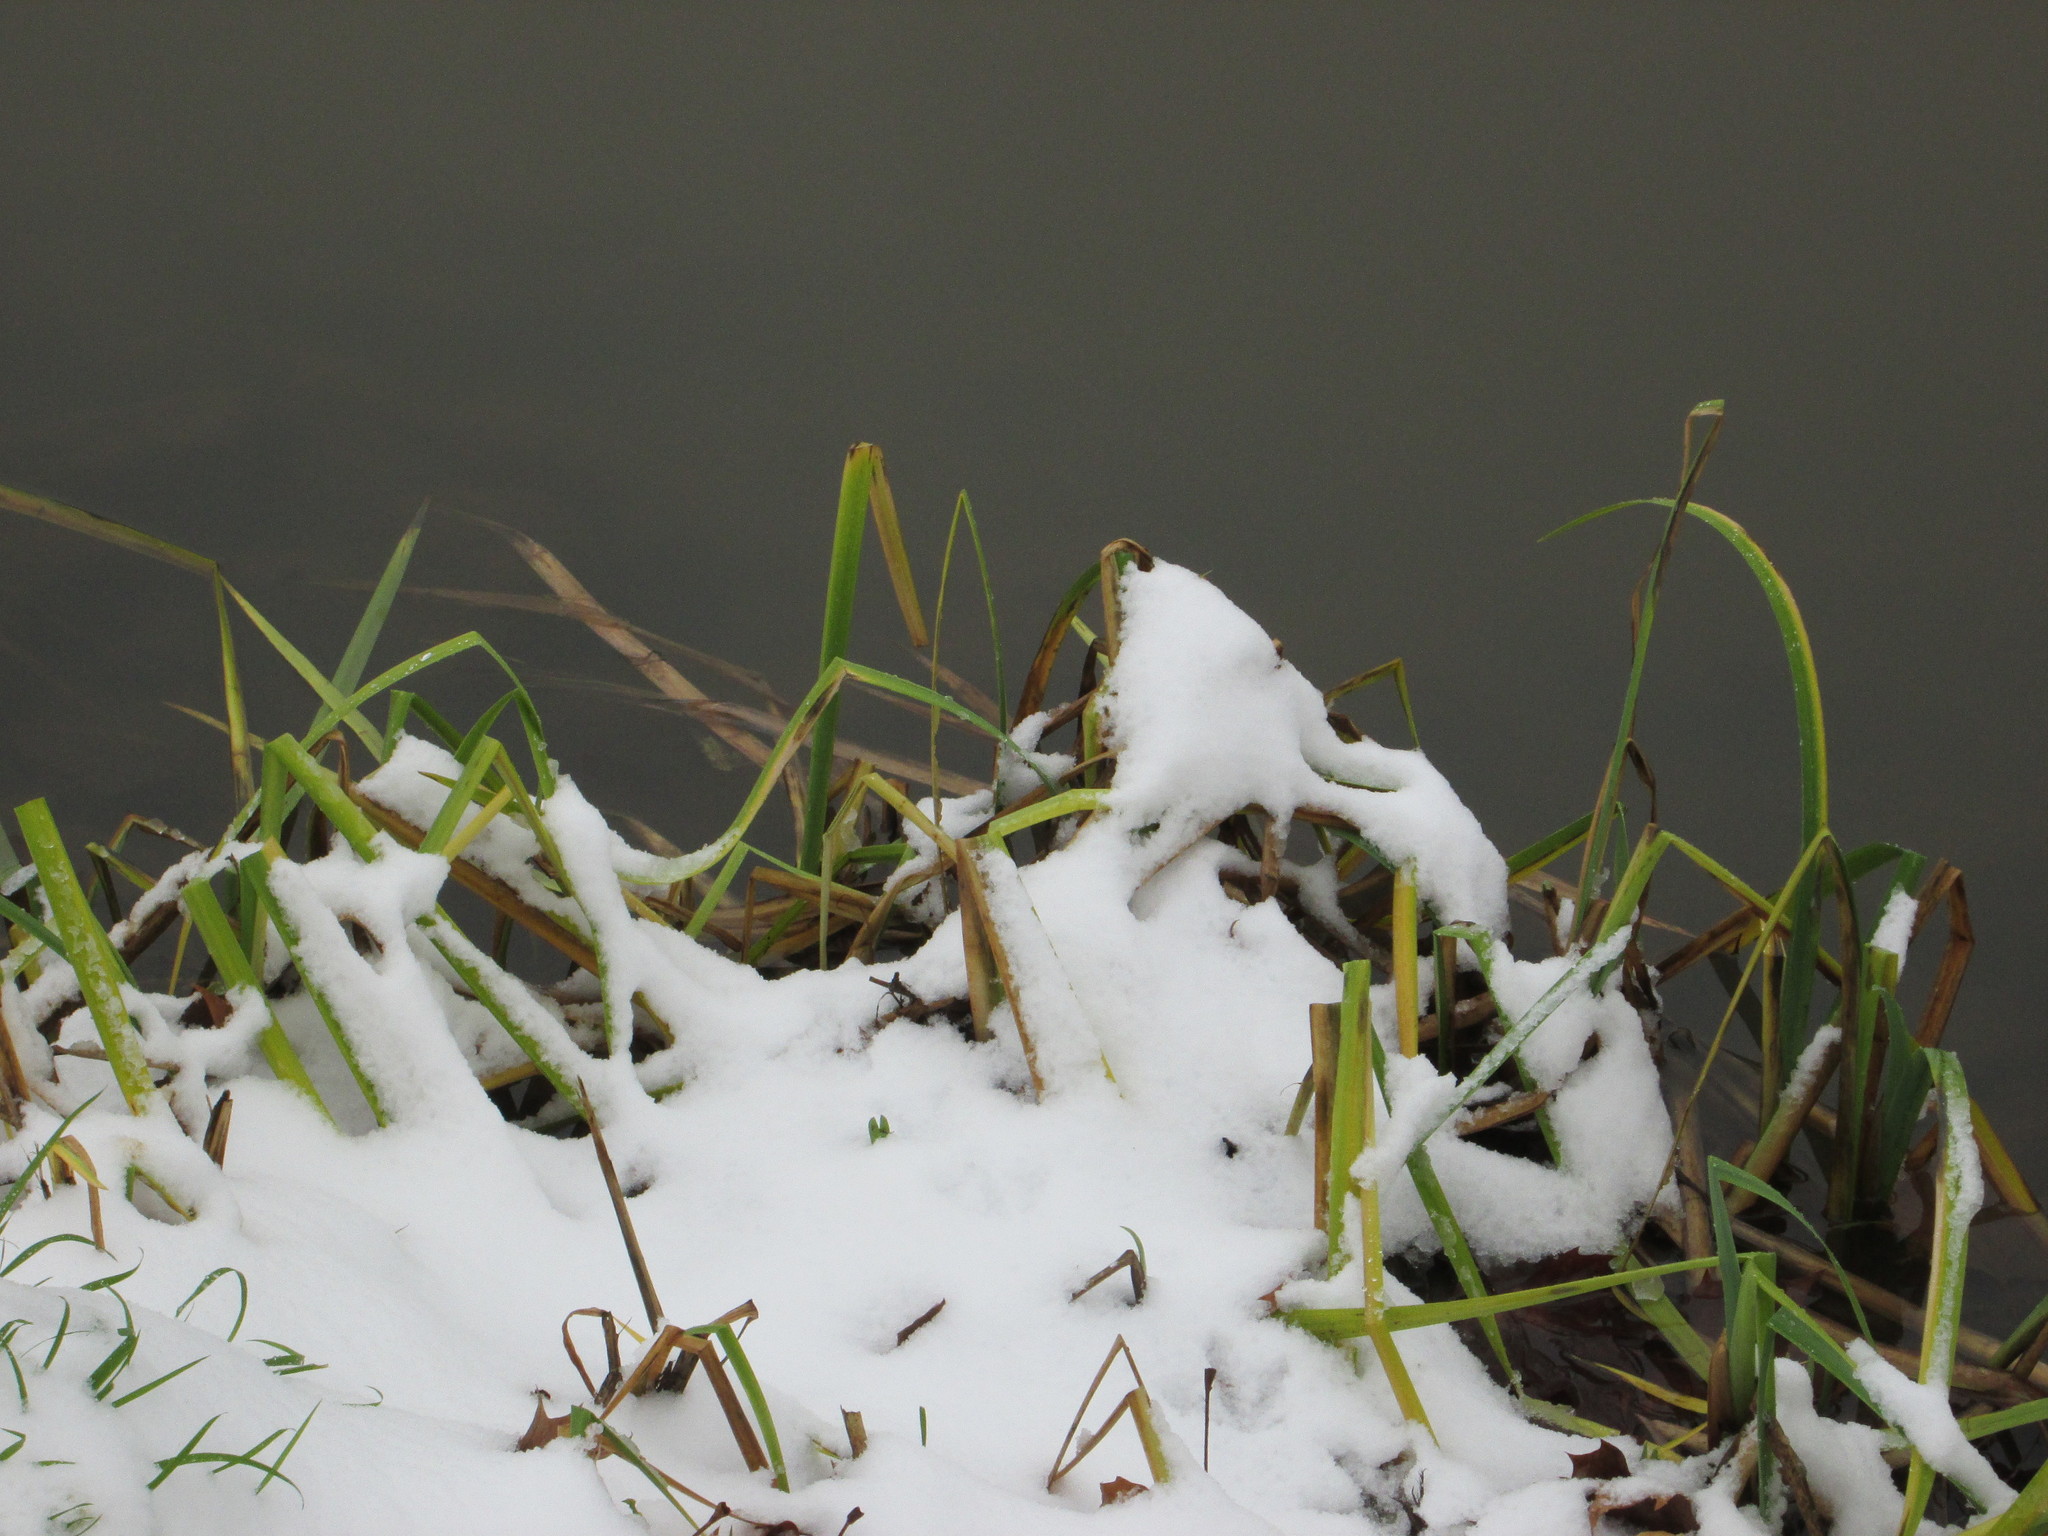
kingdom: Plantae
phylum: Tracheophyta
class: Liliopsida
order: Asparagales
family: Iridaceae
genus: Iris
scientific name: Iris pseudacorus
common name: Yellow flag
